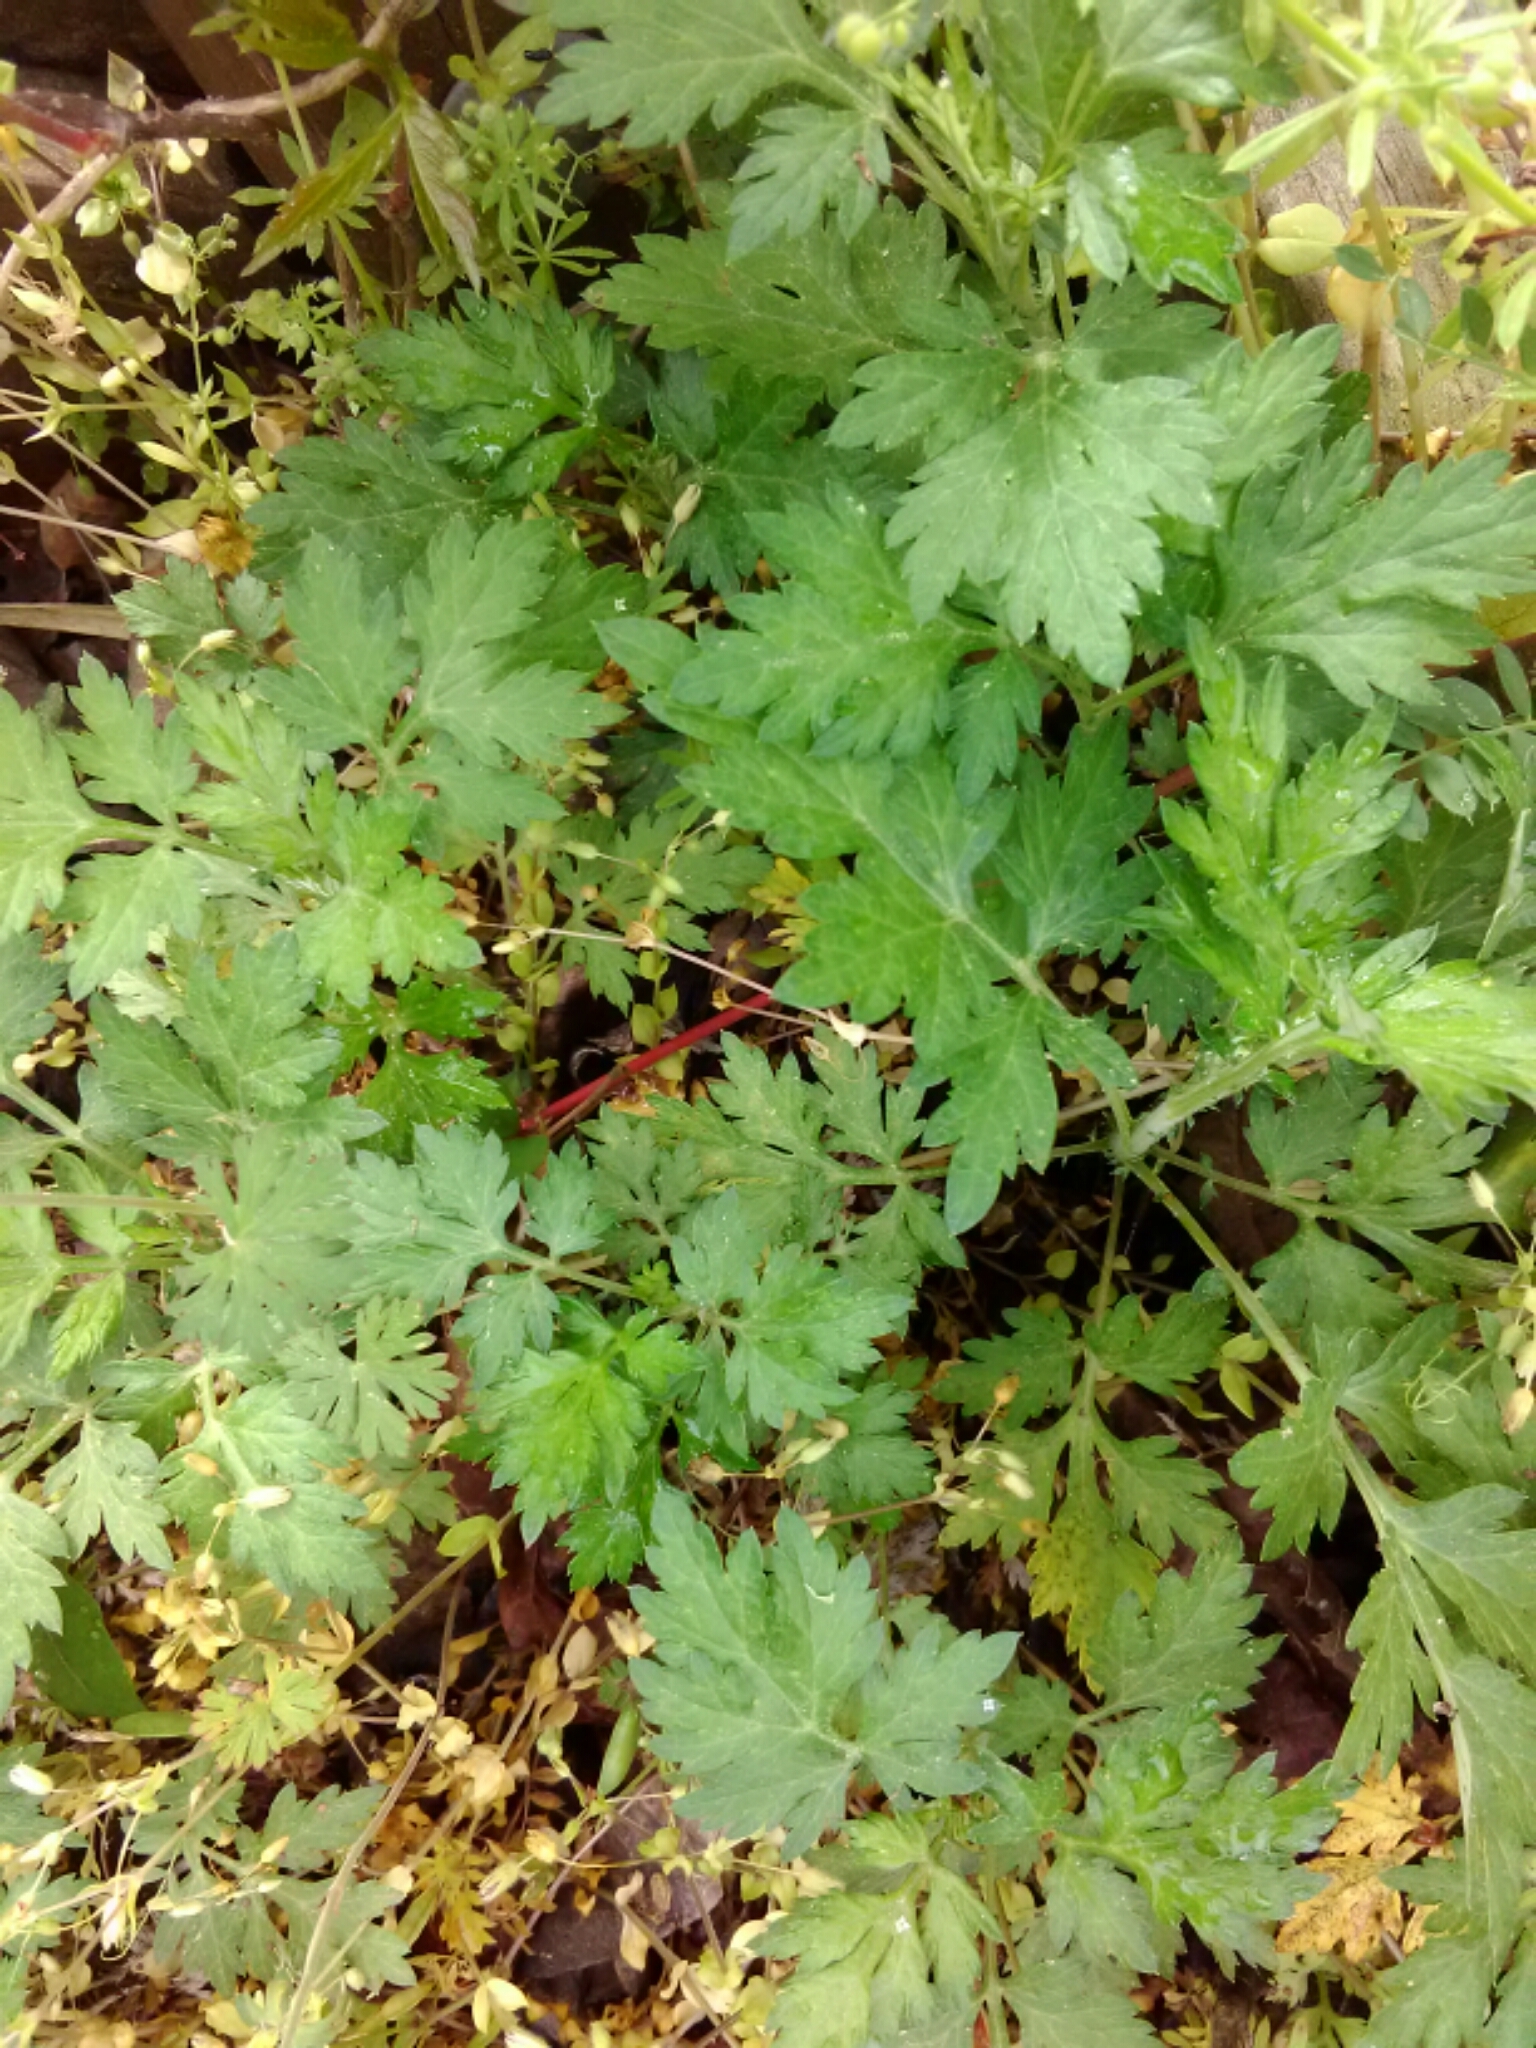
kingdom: Plantae
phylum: Tracheophyta
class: Magnoliopsida
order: Asterales
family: Asteraceae
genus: Artemisia
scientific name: Artemisia vulgaris
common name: Mugwort
